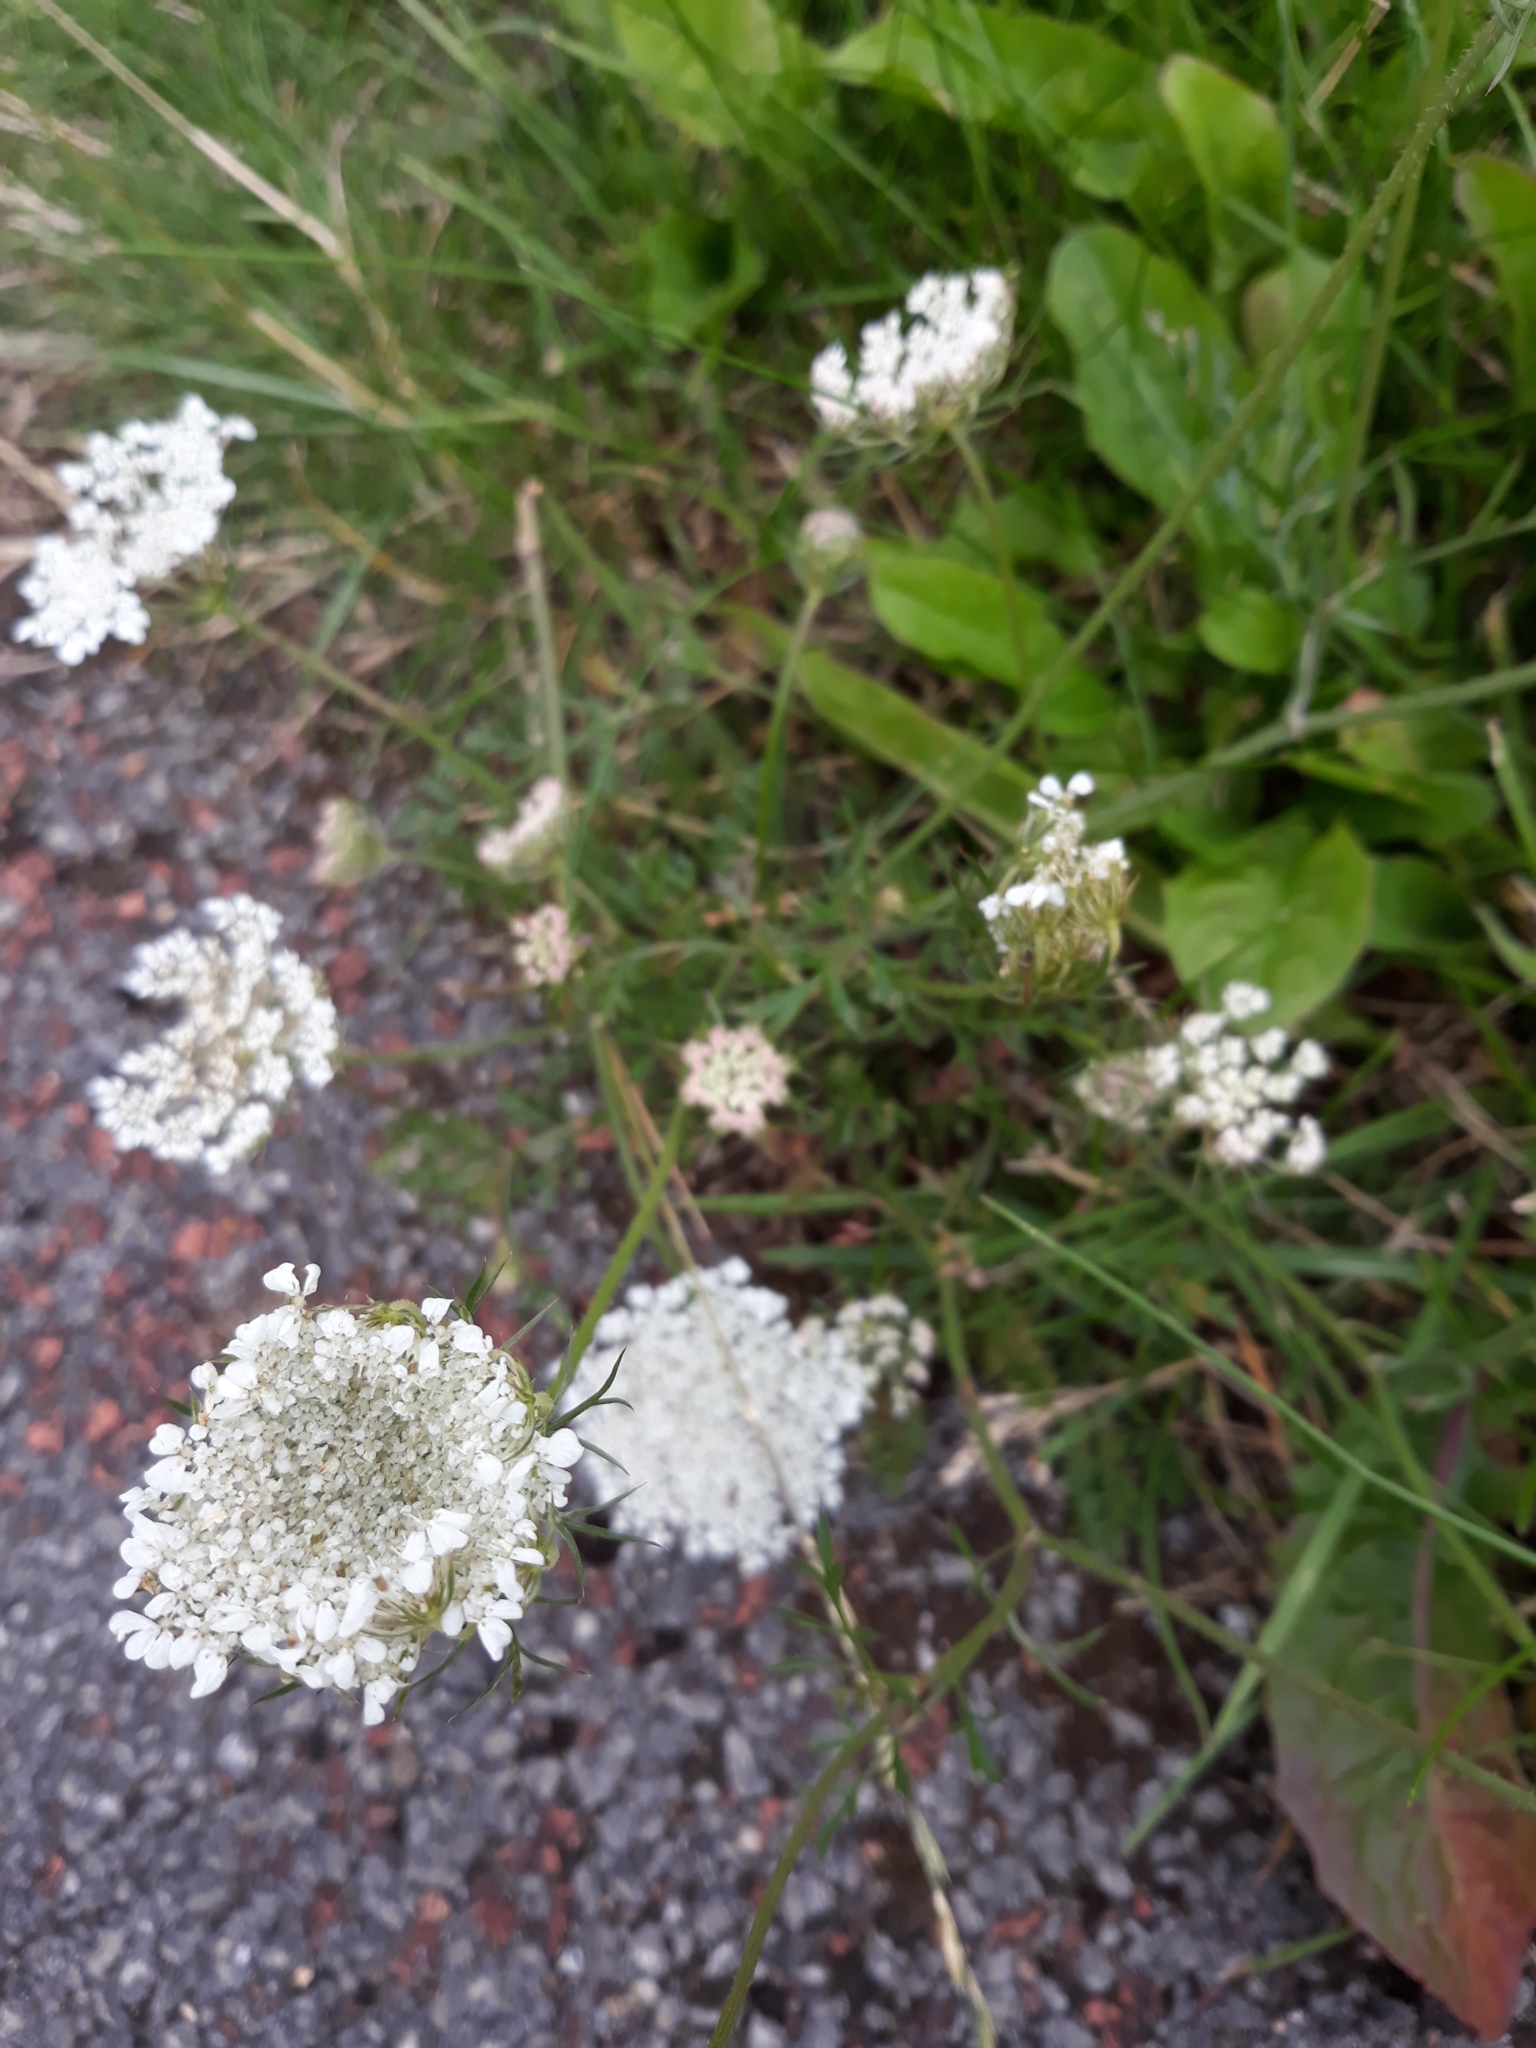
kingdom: Plantae
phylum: Tracheophyta
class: Magnoliopsida
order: Apiales
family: Apiaceae
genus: Daucus
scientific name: Daucus carota
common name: Wild carrot
